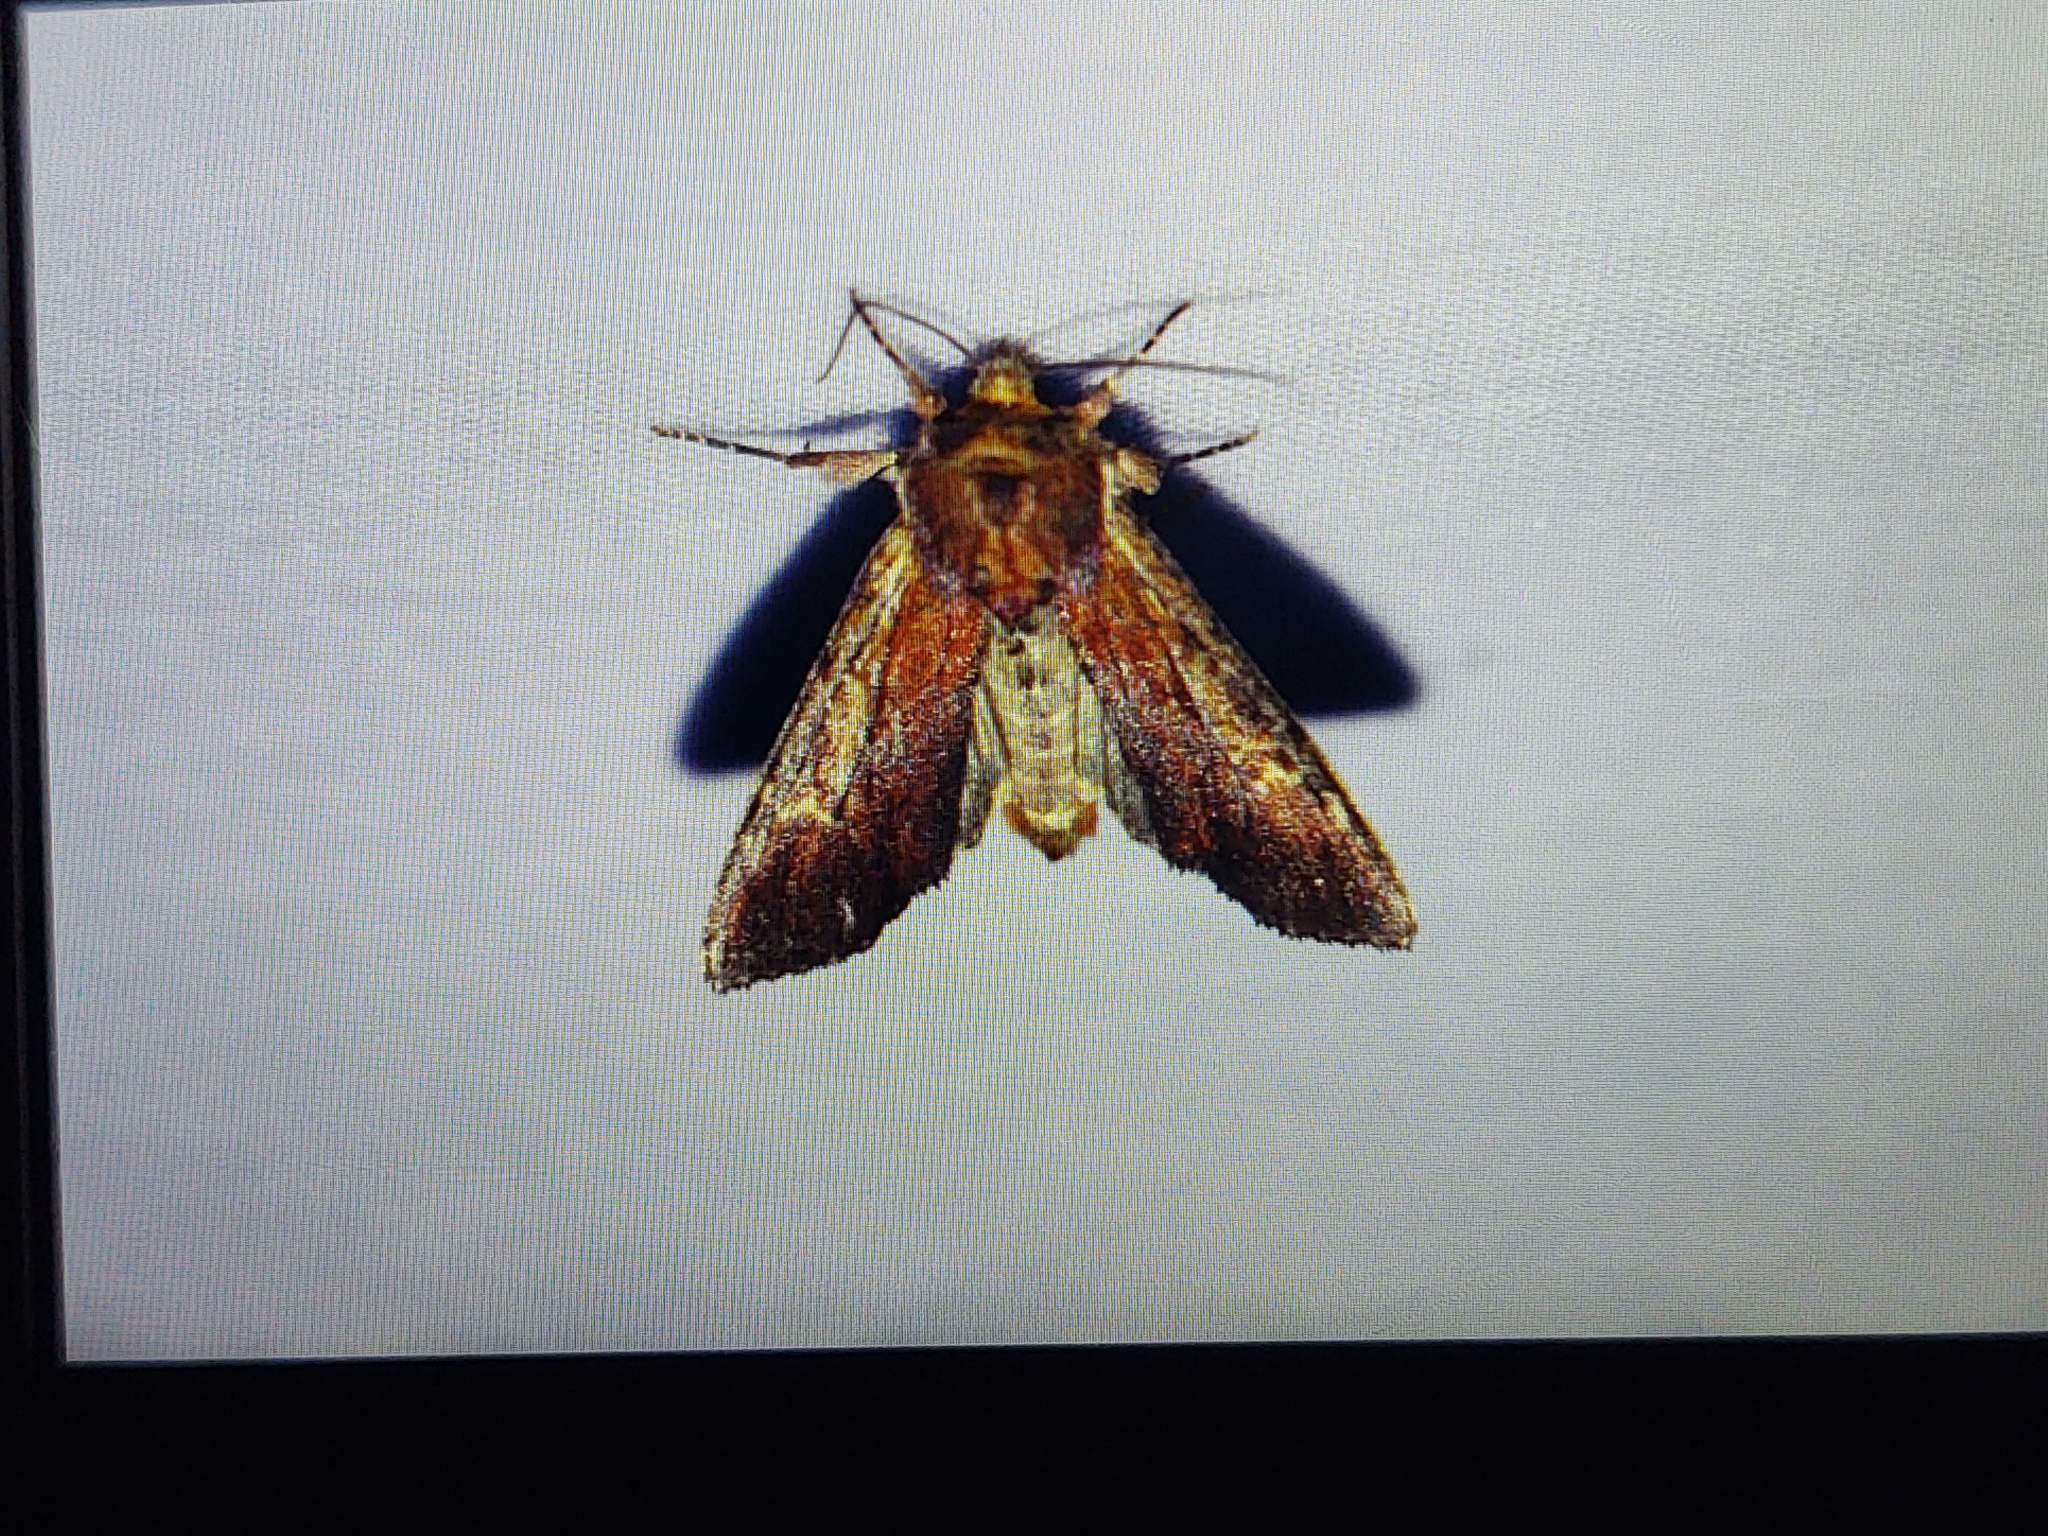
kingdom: Animalia
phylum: Arthropoda
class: Insecta
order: Lepidoptera
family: Noctuidae
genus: Apamea
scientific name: Apamea crenata
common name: Clouded-bordered brindle
